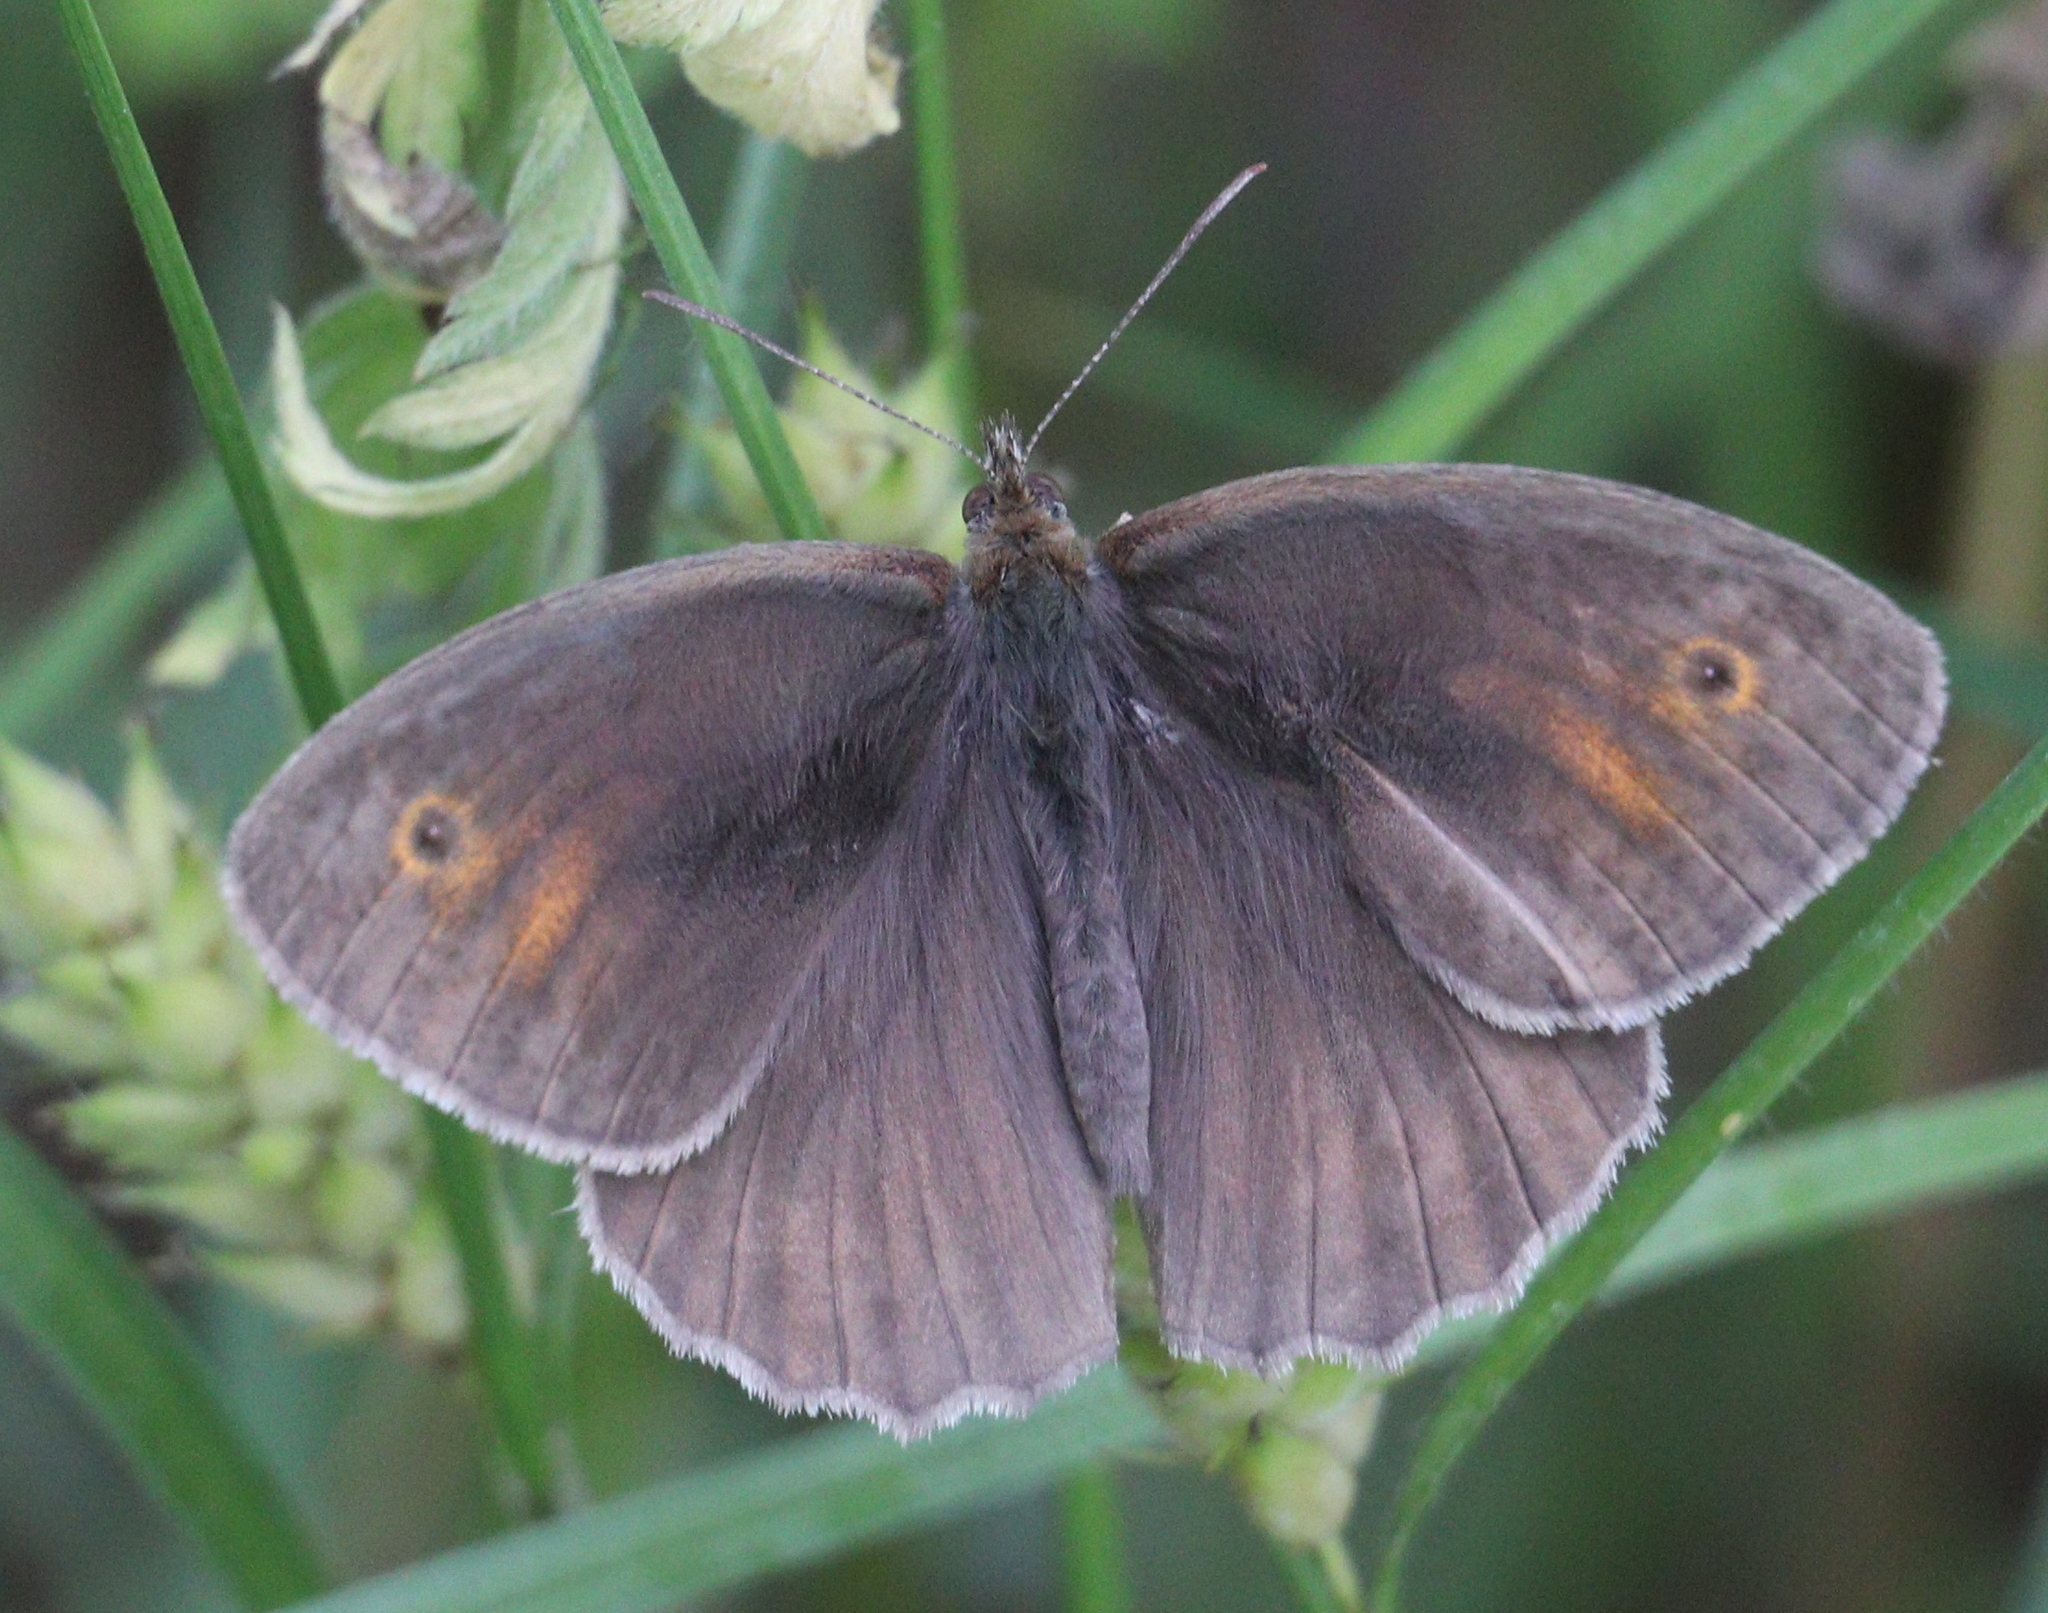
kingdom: Animalia
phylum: Arthropoda
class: Insecta
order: Lepidoptera
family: Nymphalidae
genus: Maniola
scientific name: Maniola jurtina
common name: Meadow brown
